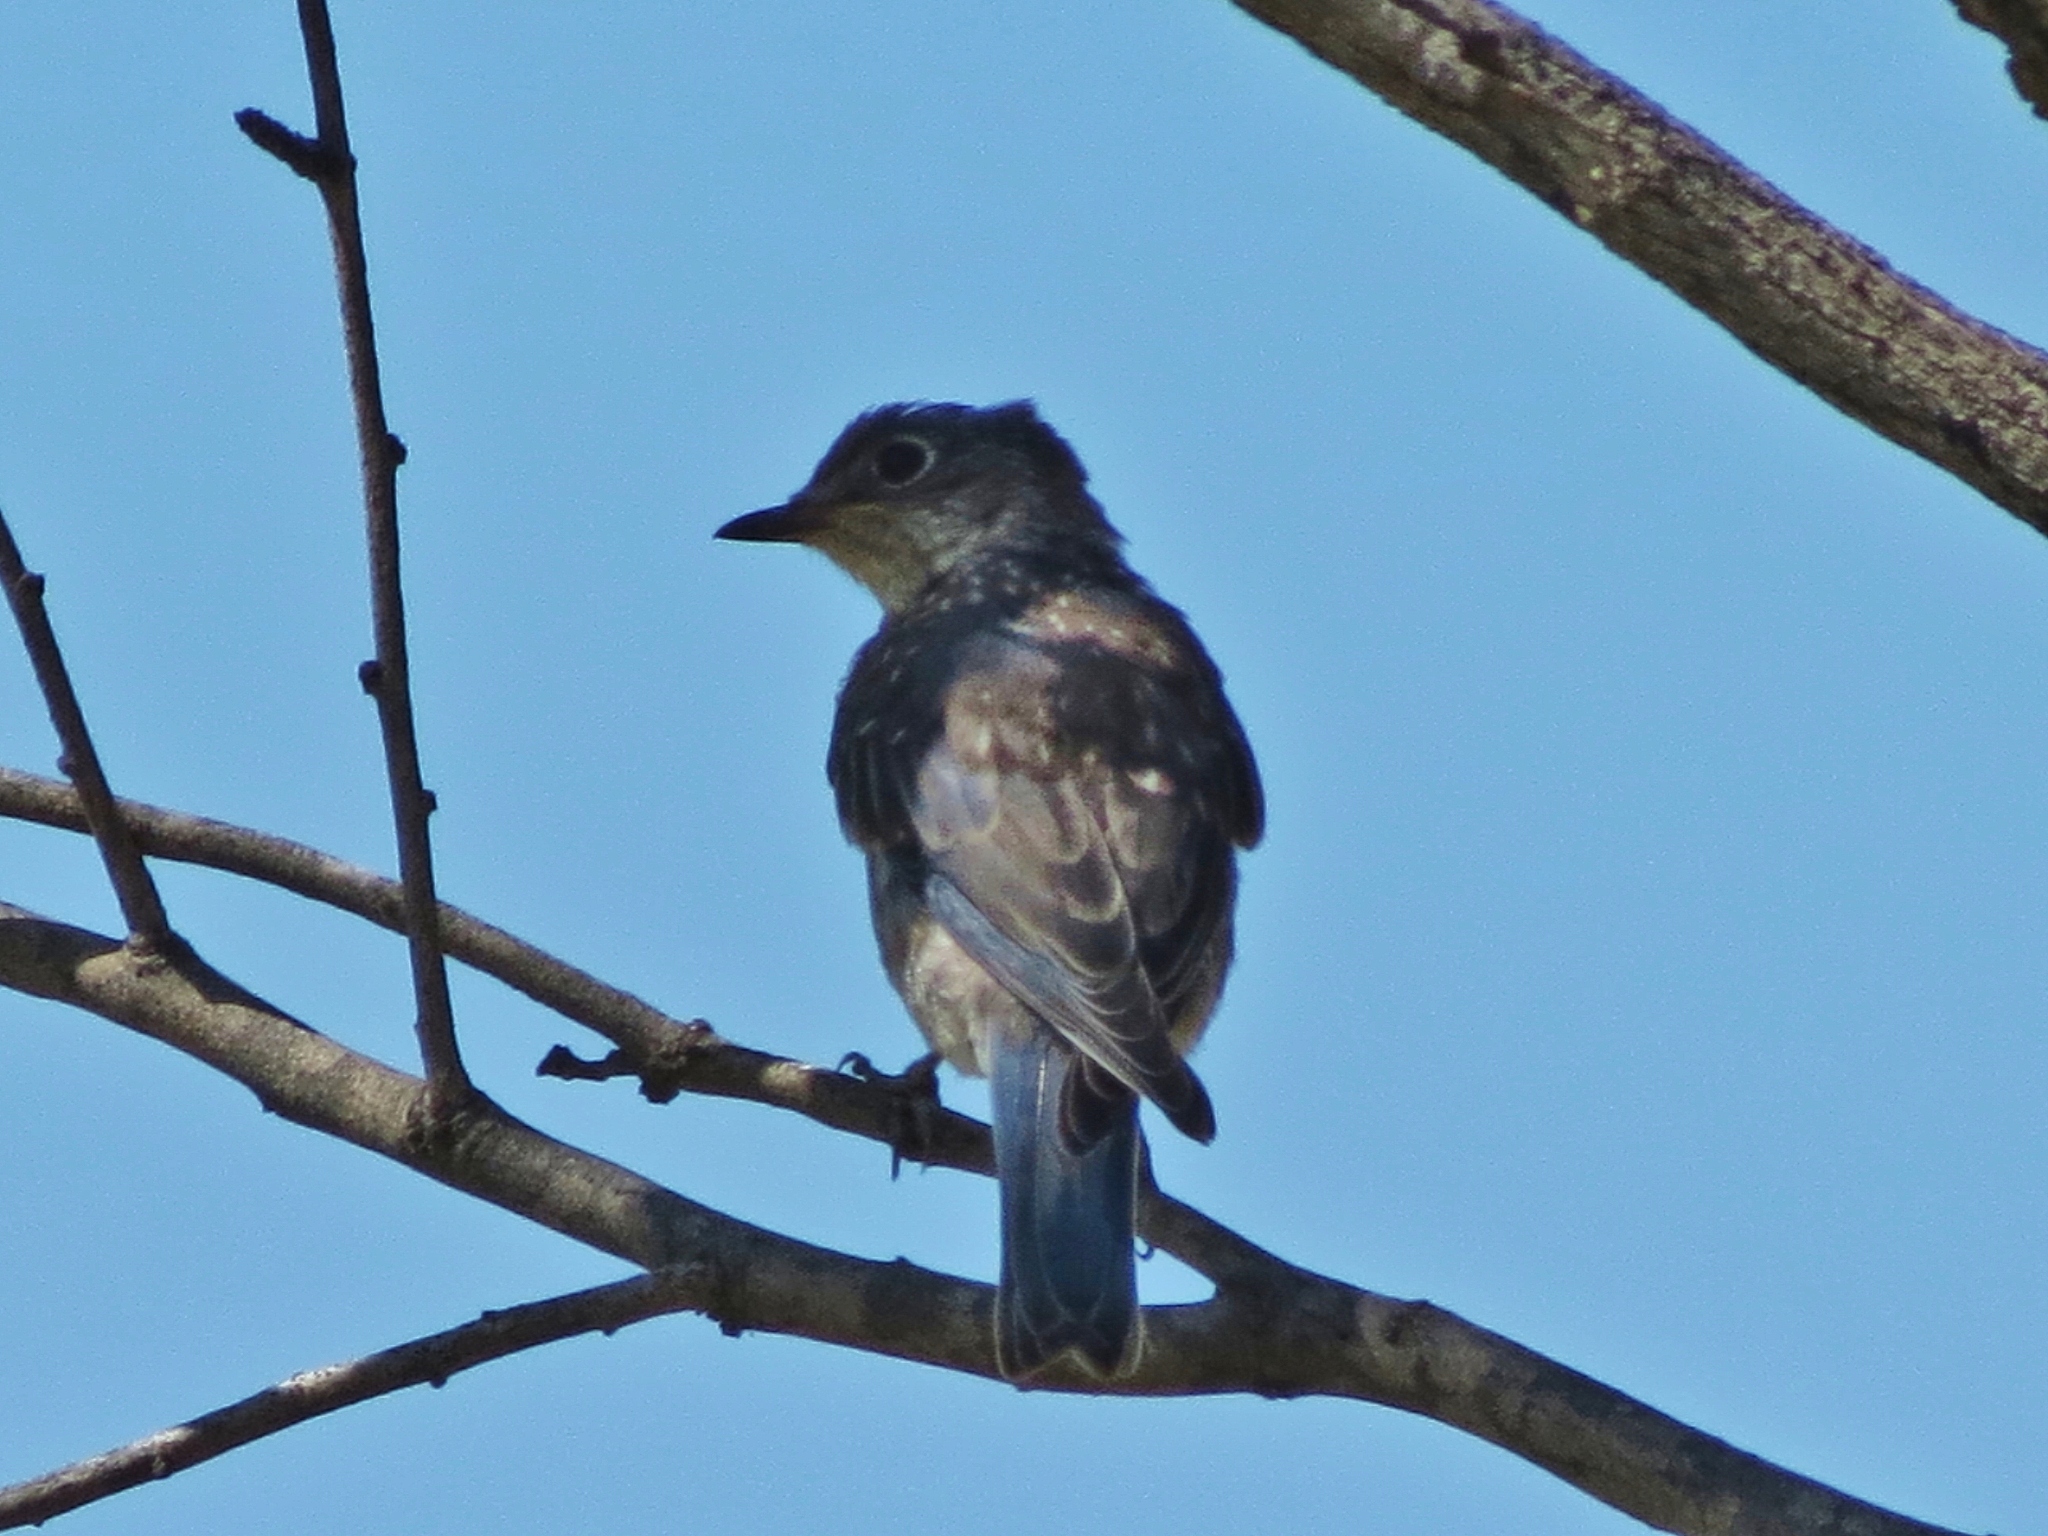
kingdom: Animalia
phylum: Chordata
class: Aves
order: Passeriformes
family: Turdidae
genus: Sialia
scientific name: Sialia sialis
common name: Eastern bluebird
